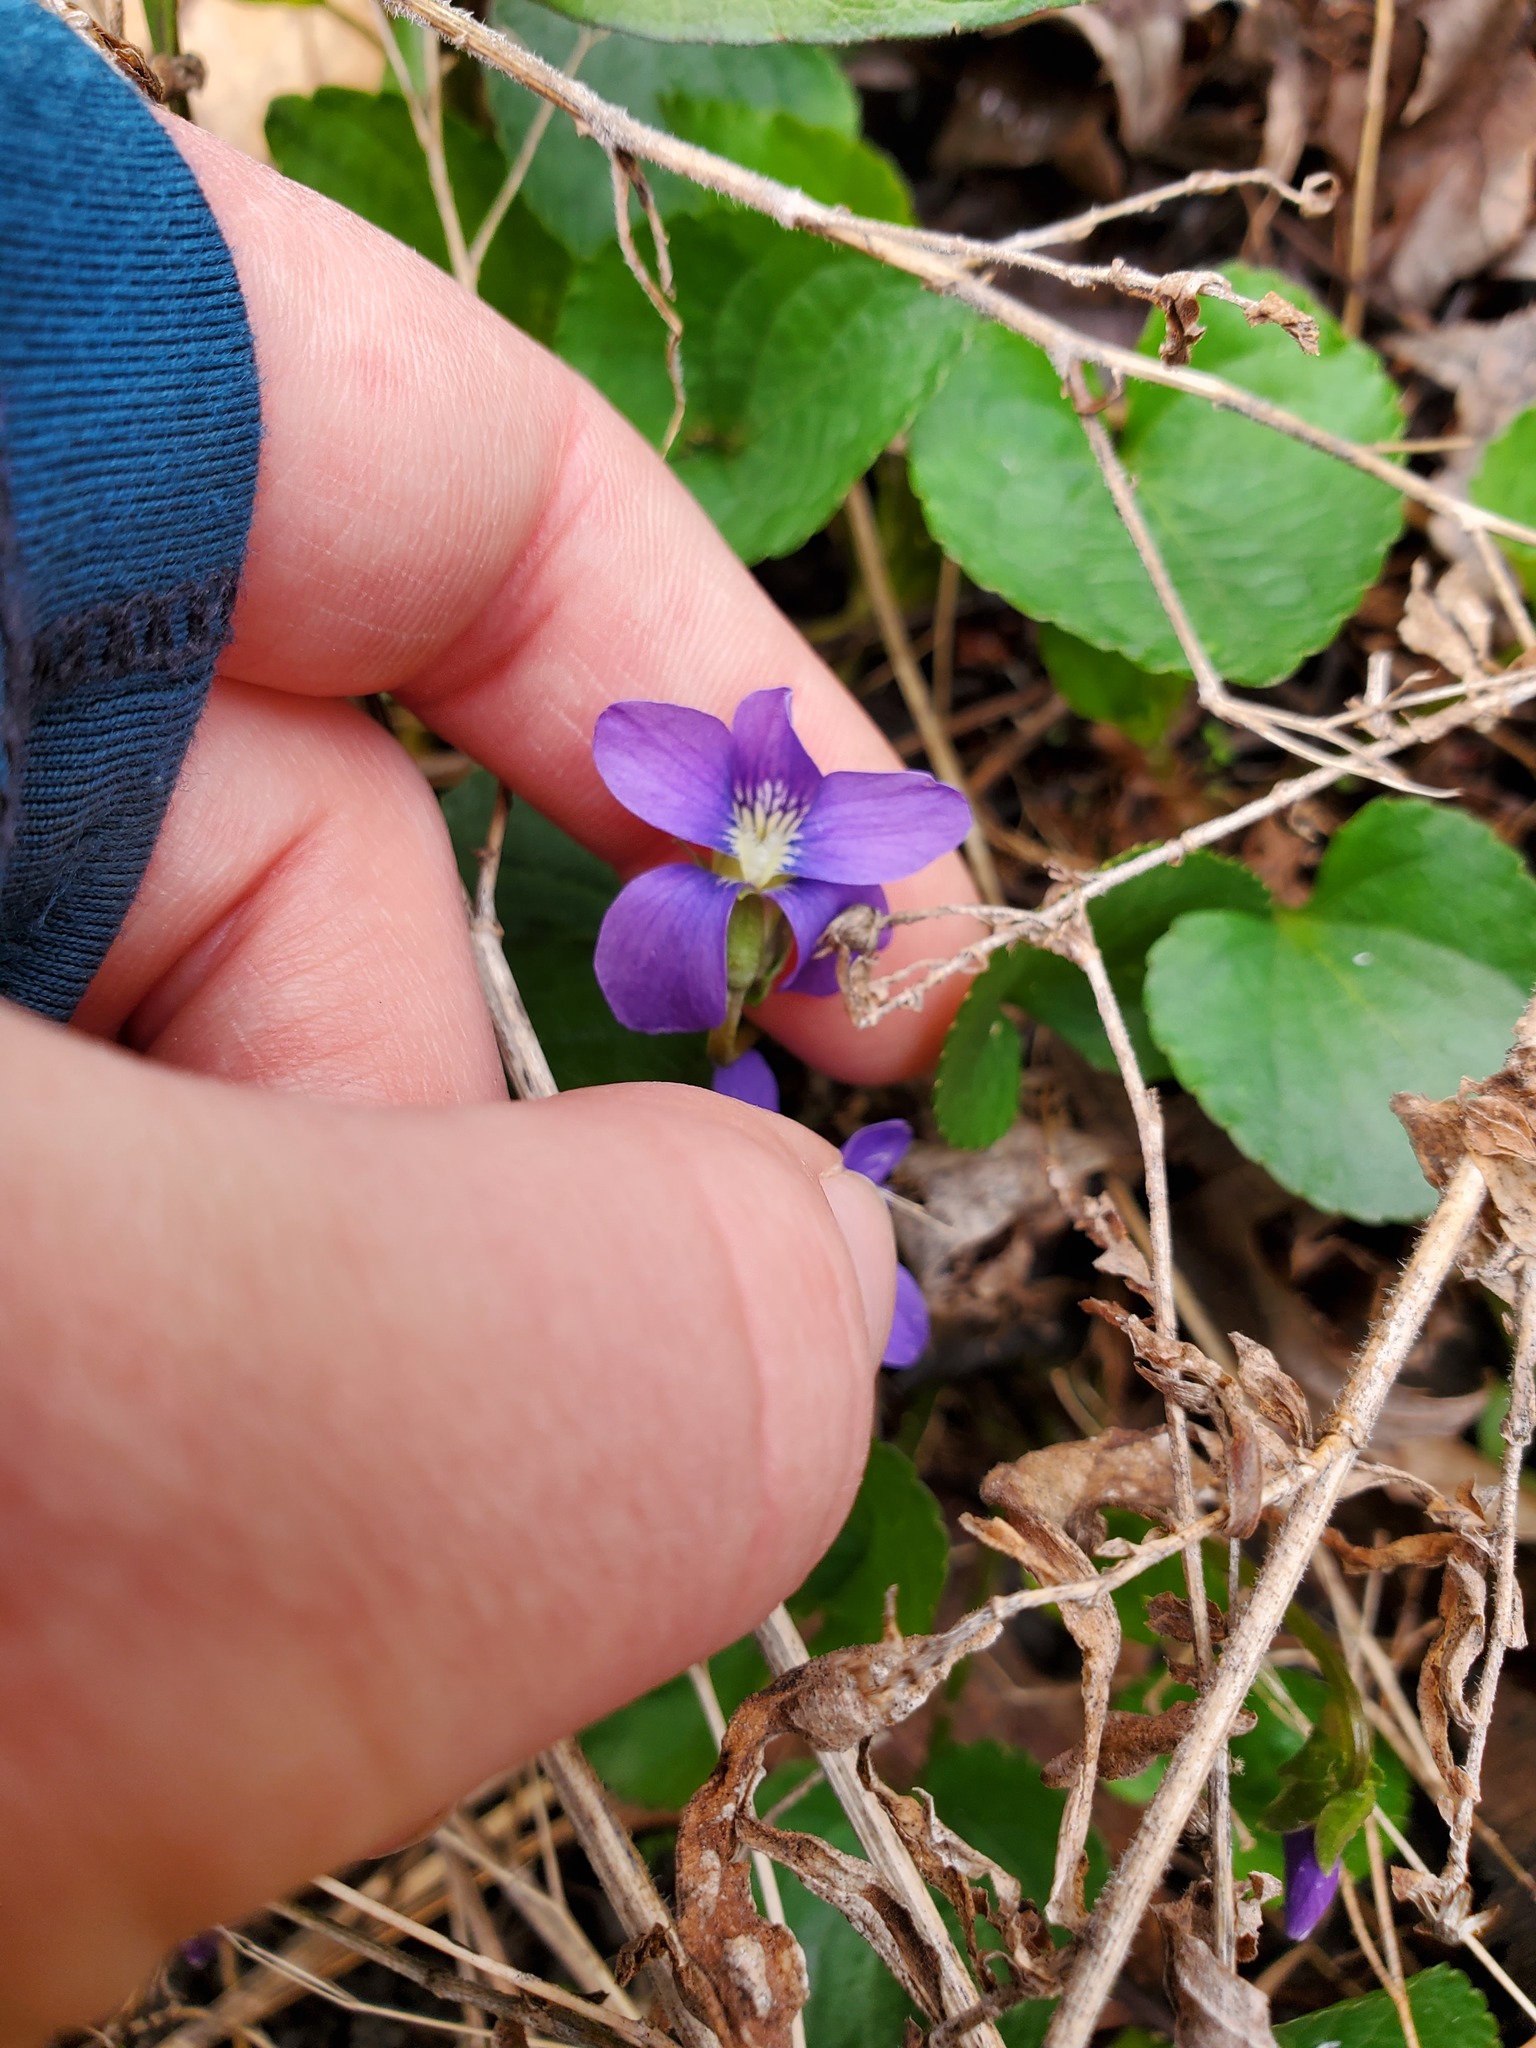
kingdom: Plantae
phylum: Tracheophyta
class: Magnoliopsida
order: Malpighiales
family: Violaceae
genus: Viola
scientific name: Viola sororia
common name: Dooryard violet
